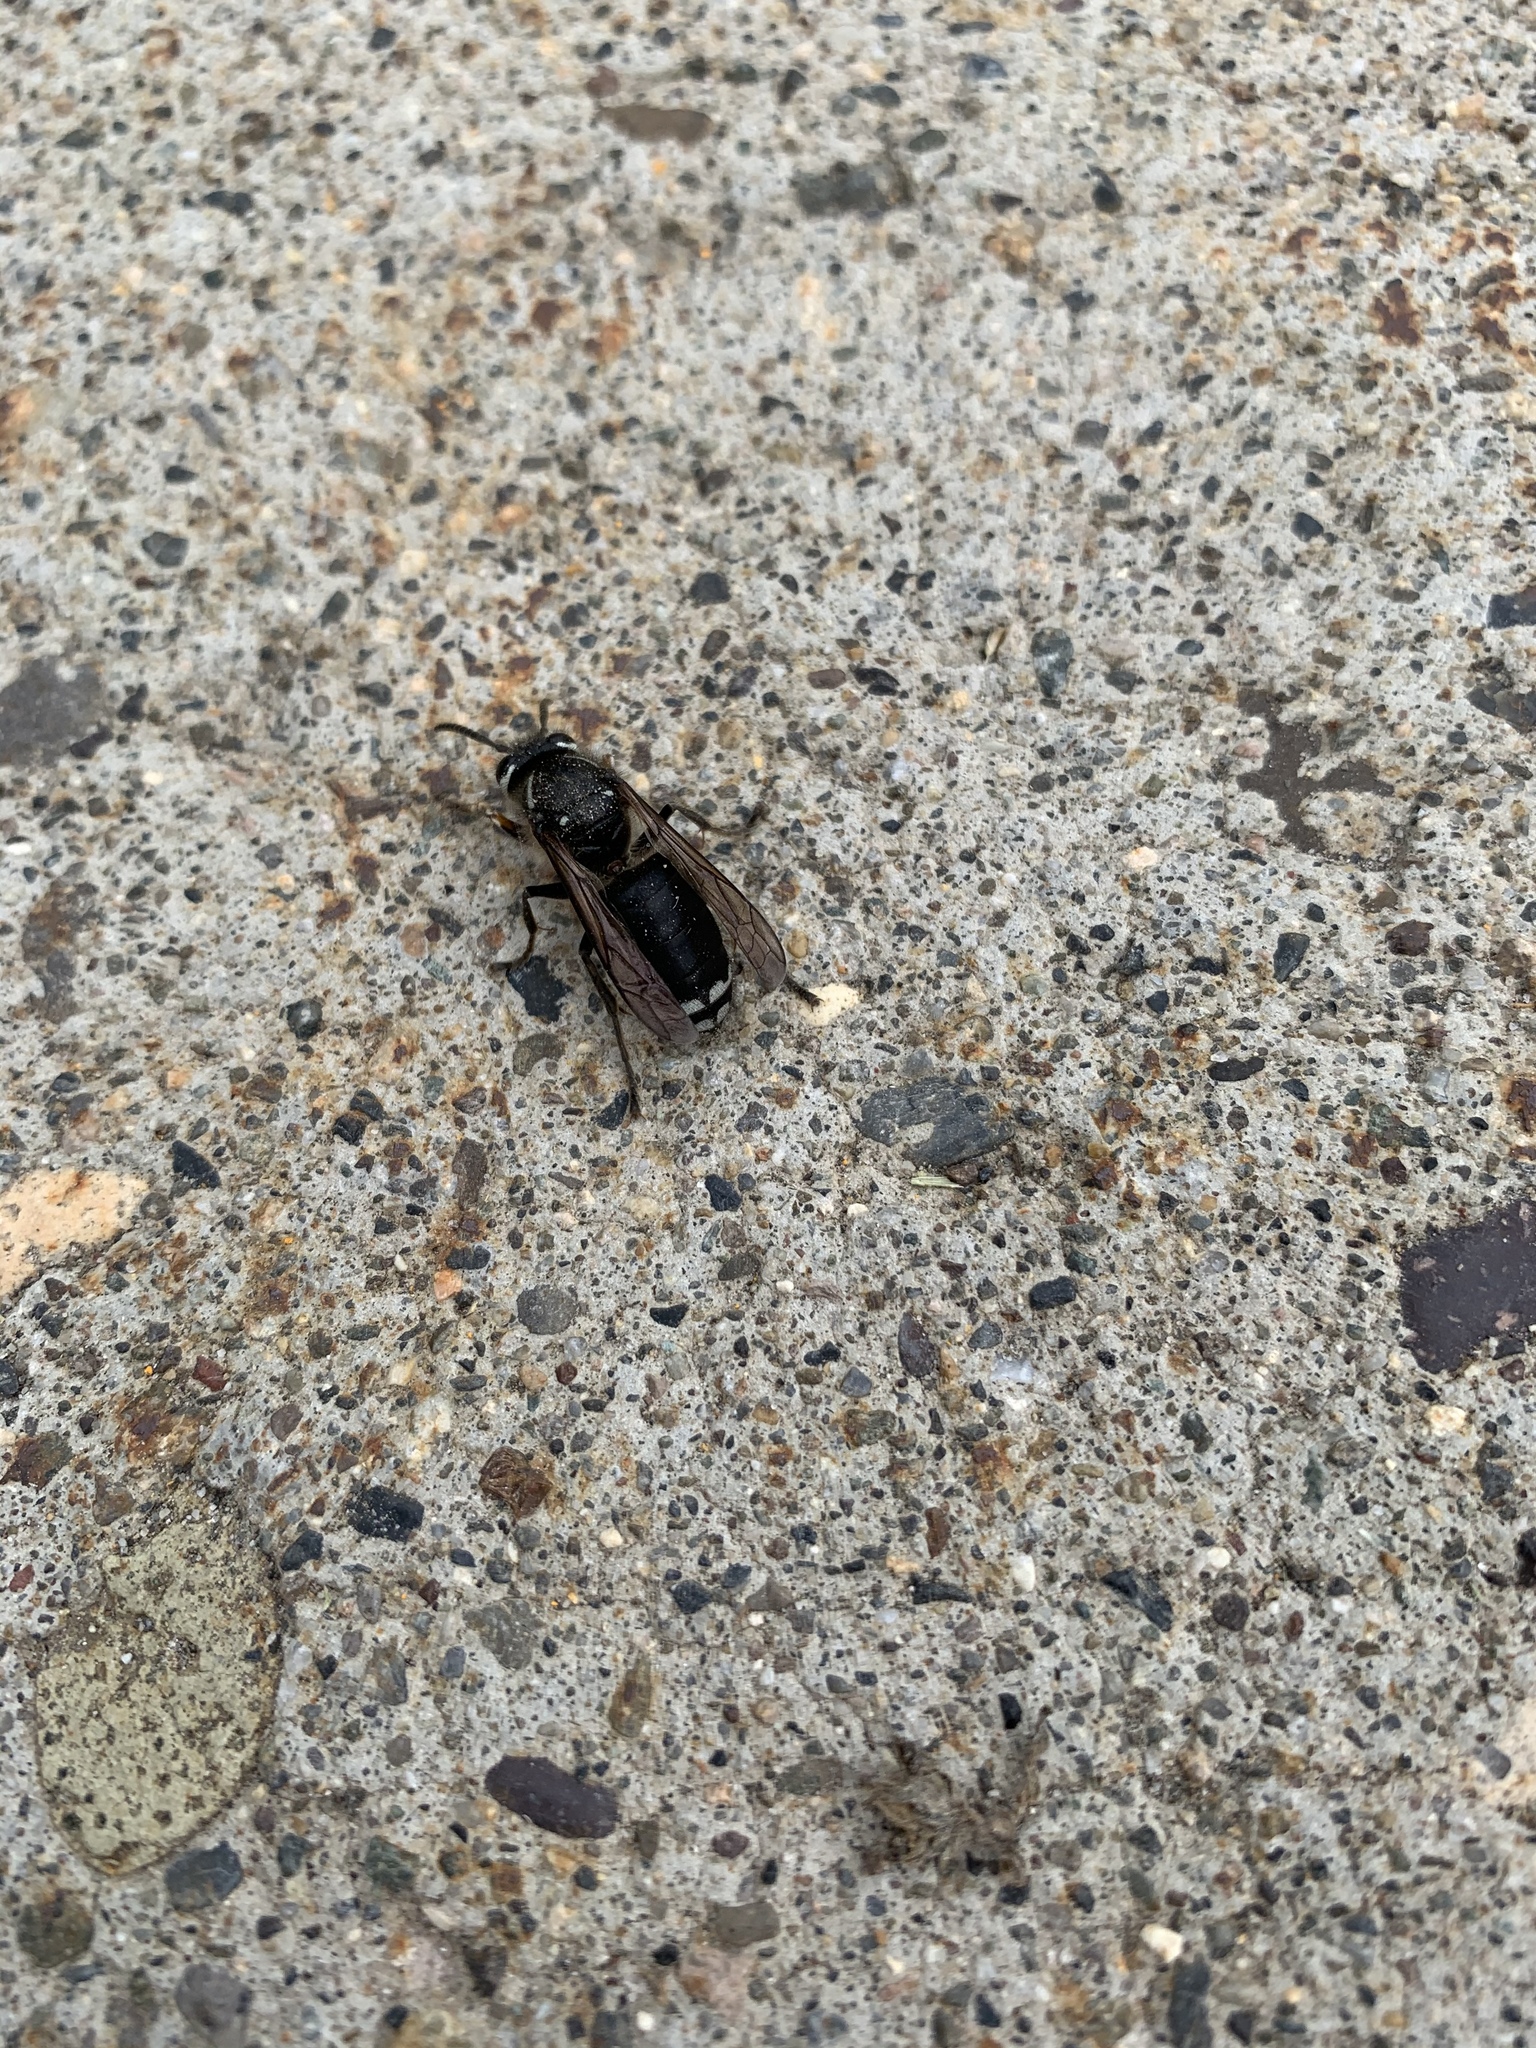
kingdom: Animalia
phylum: Arthropoda
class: Insecta
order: Hymenoptera
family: Vespidae
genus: Dolichovespula
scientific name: Dolichovespula maculata
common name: Bald-faced hornet
